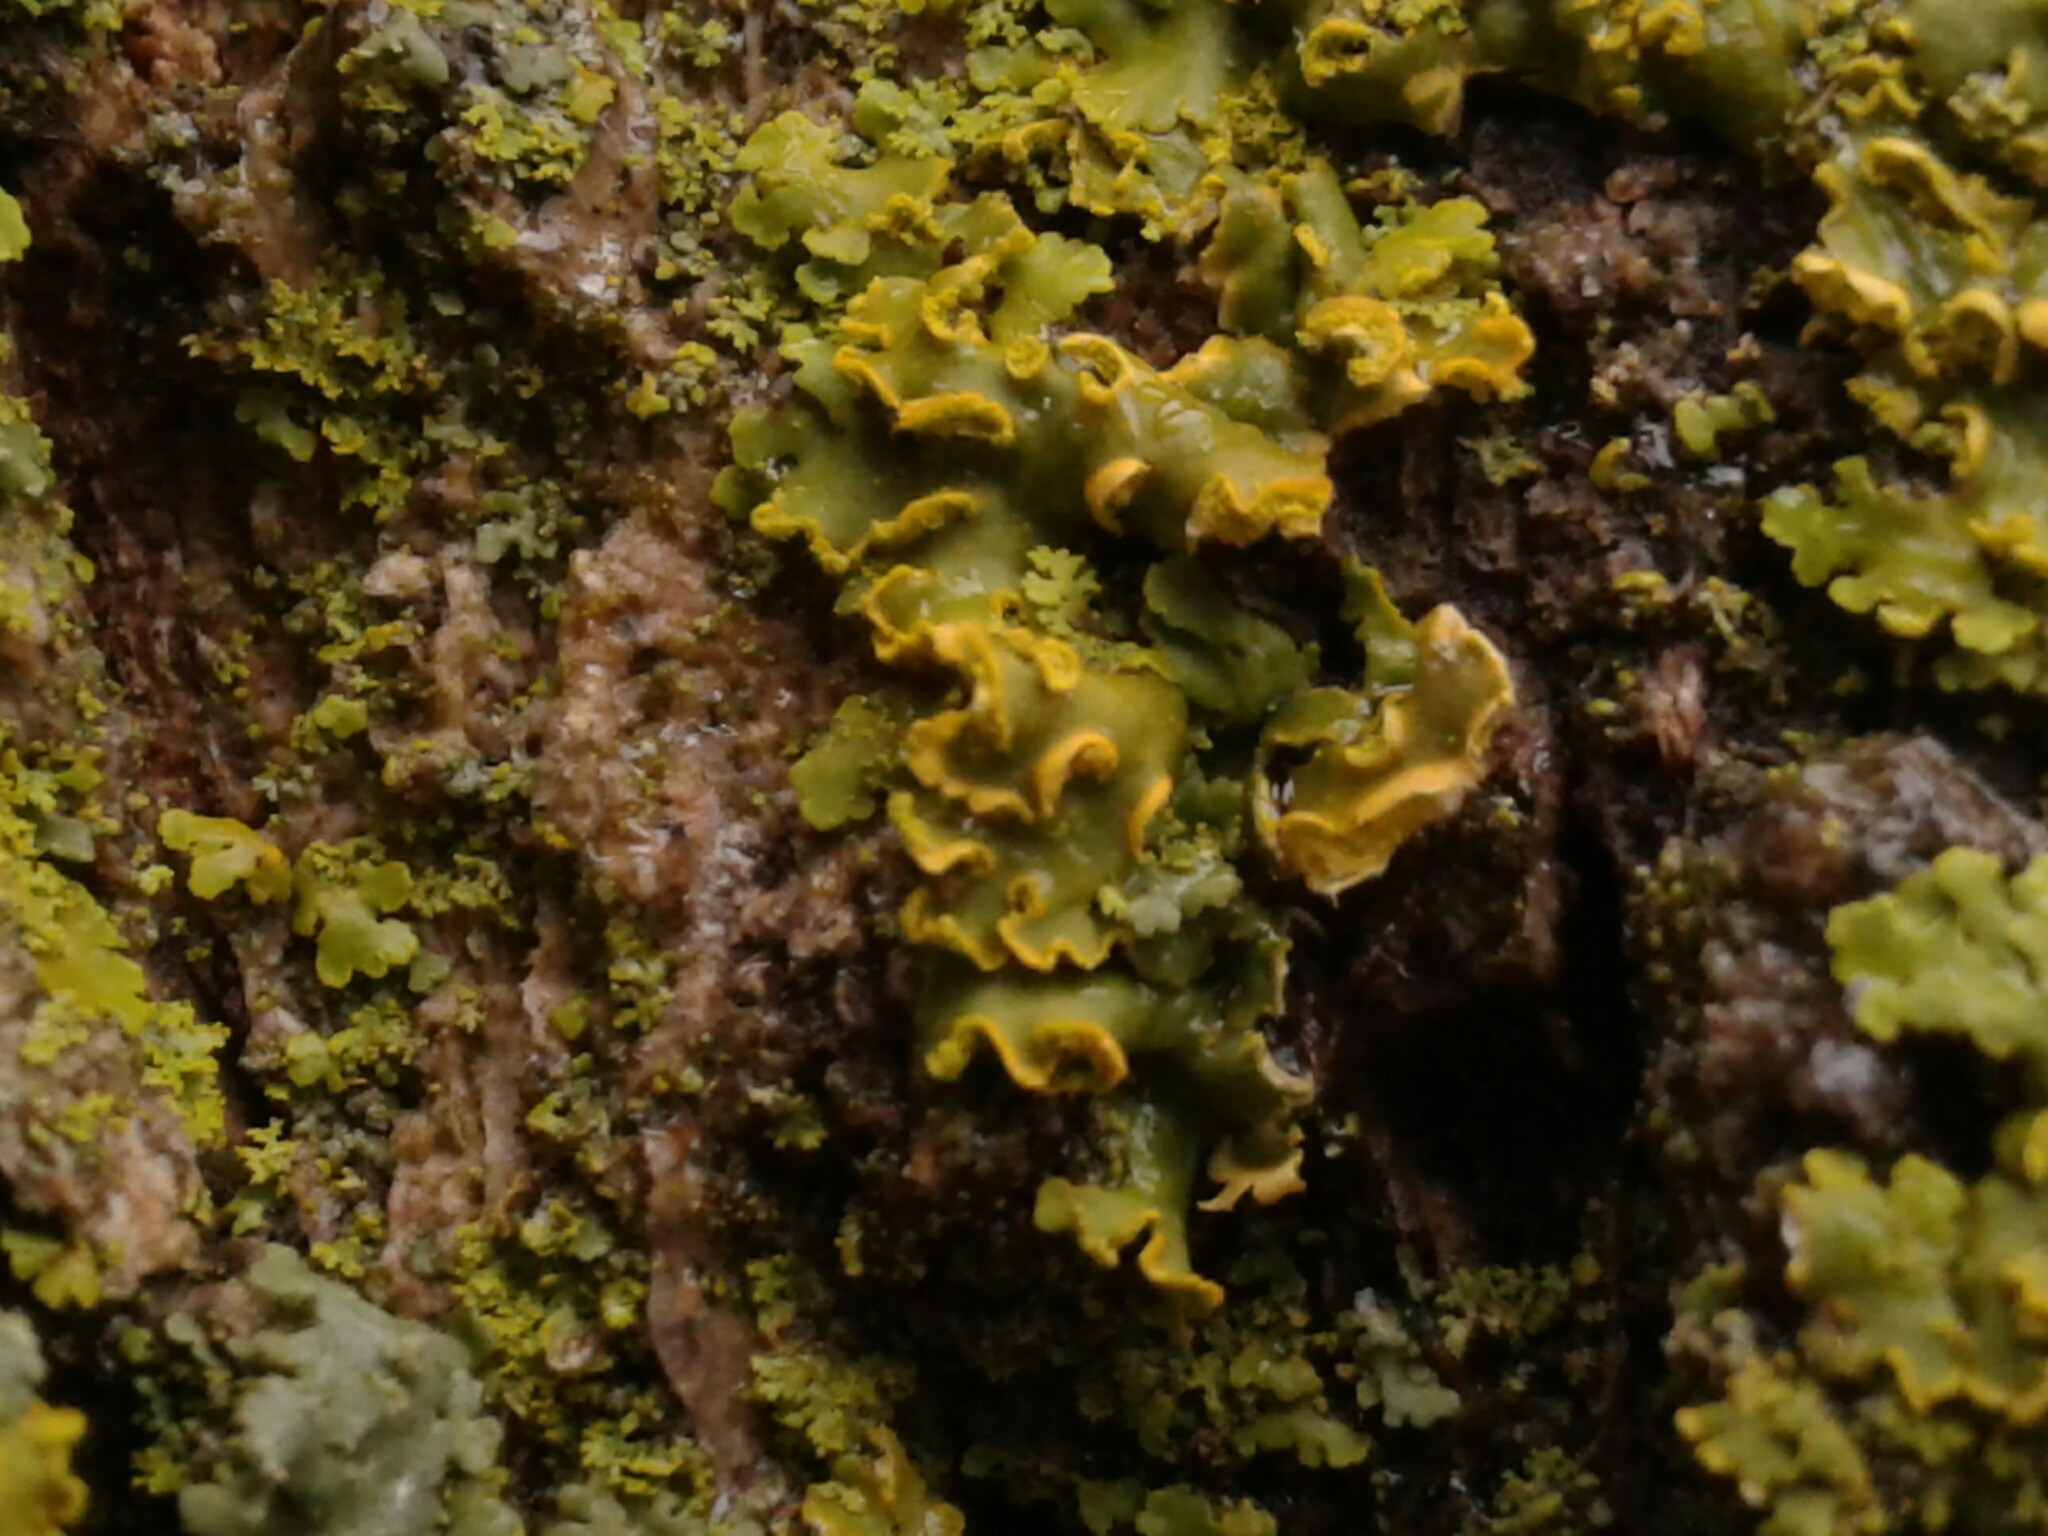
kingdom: Fungi
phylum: Ascomycota
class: Lecanoromycetes
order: Teloschistales
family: Teloschistaceae
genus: Oxneria
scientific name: Oxneria fallax
